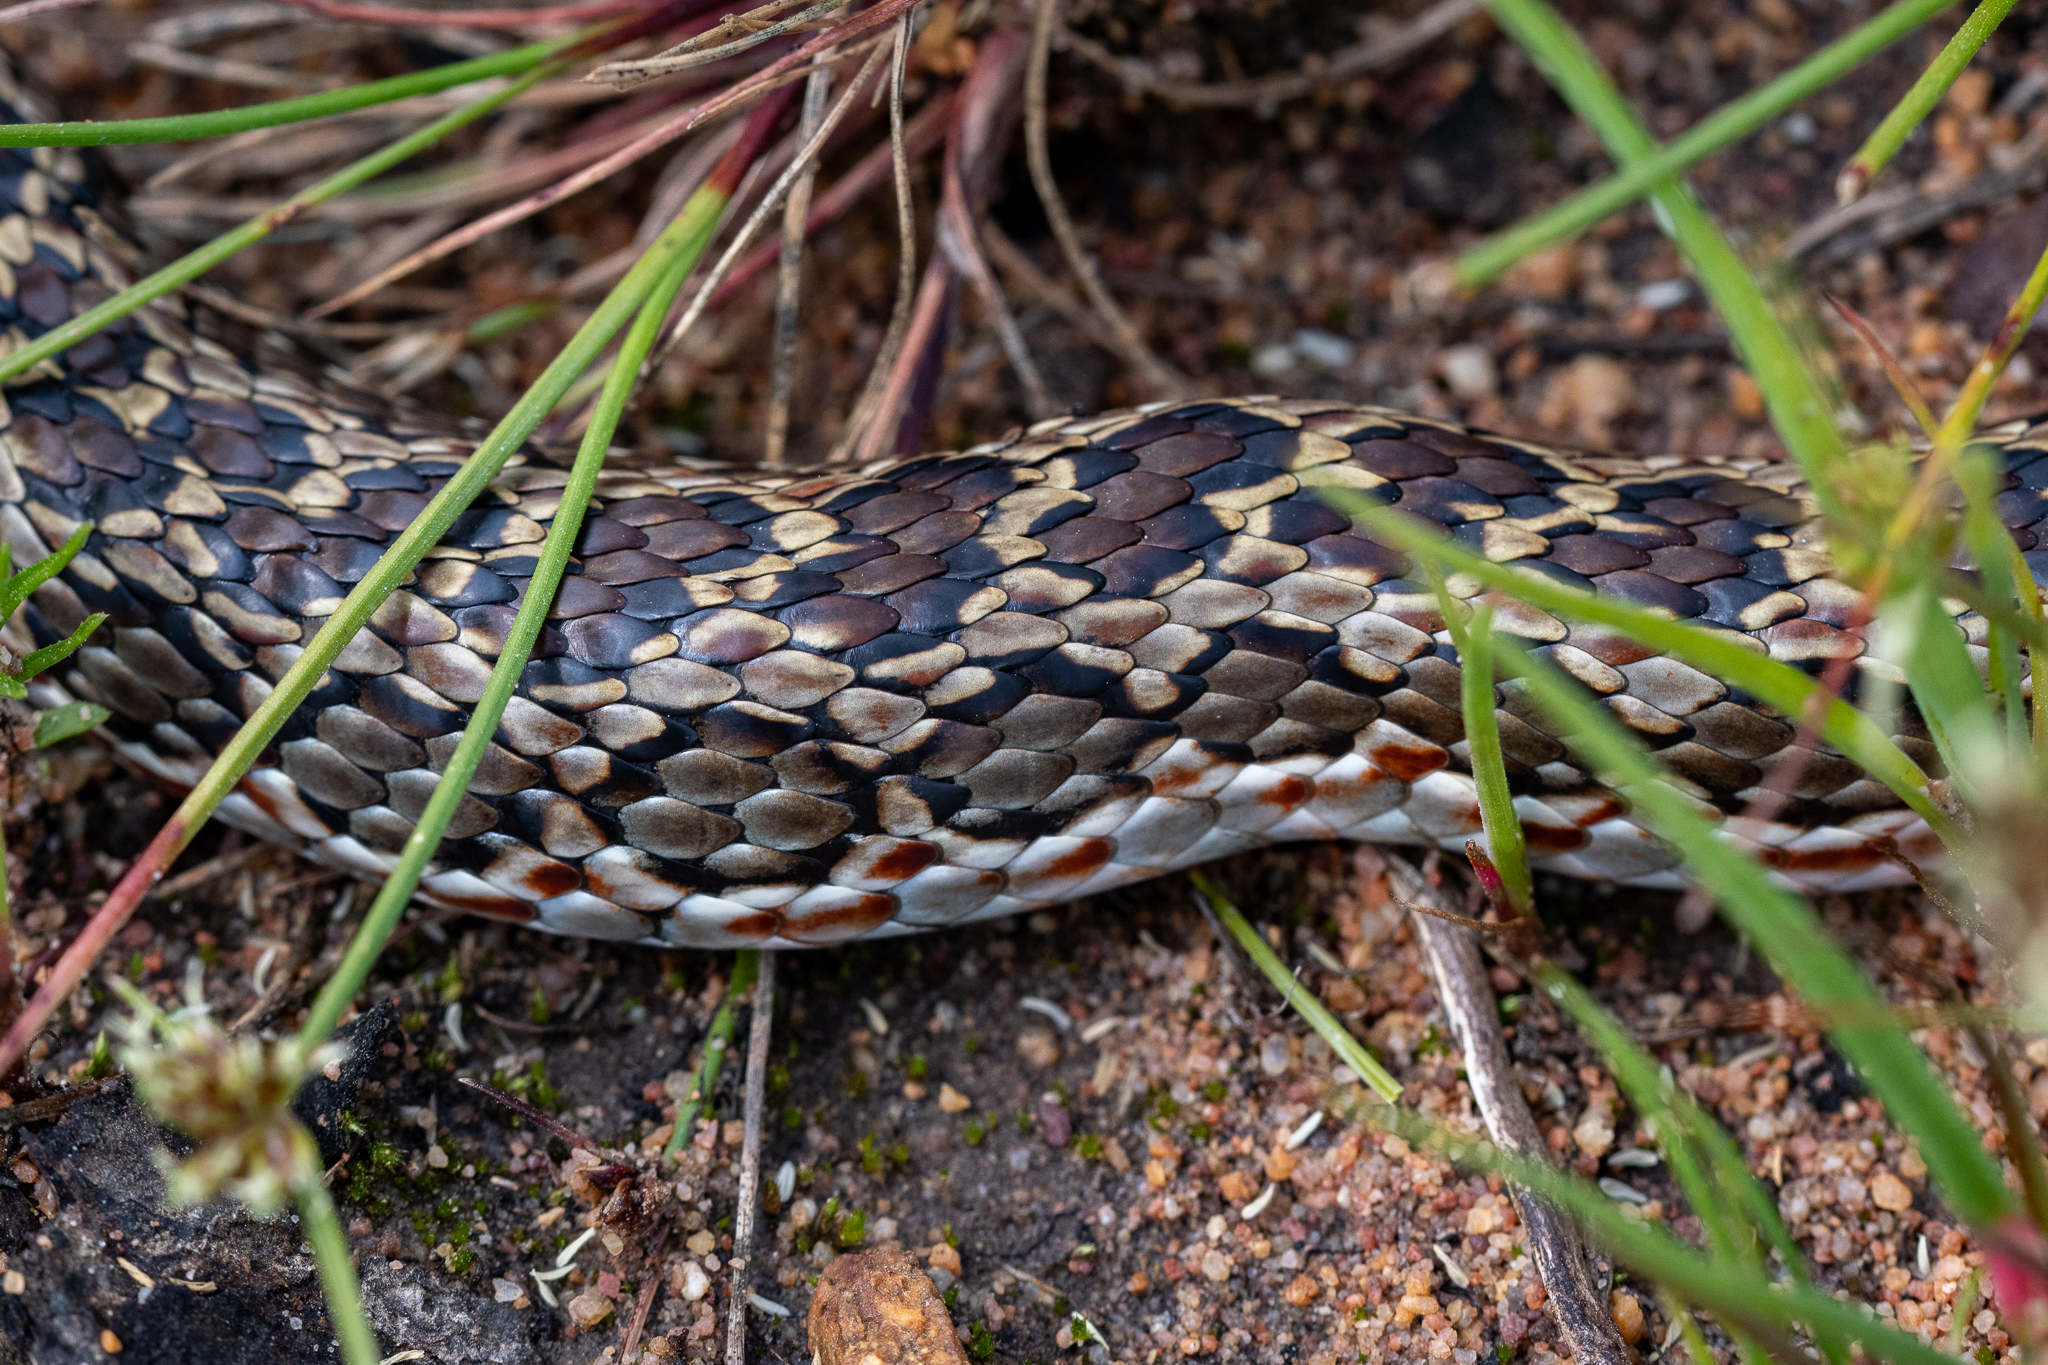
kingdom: Animalia
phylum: Chordata
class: Squamata
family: Psammophiidae
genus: Psammophylax
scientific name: Psammophylax rhombeatus
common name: Rhombic skaapsteker
